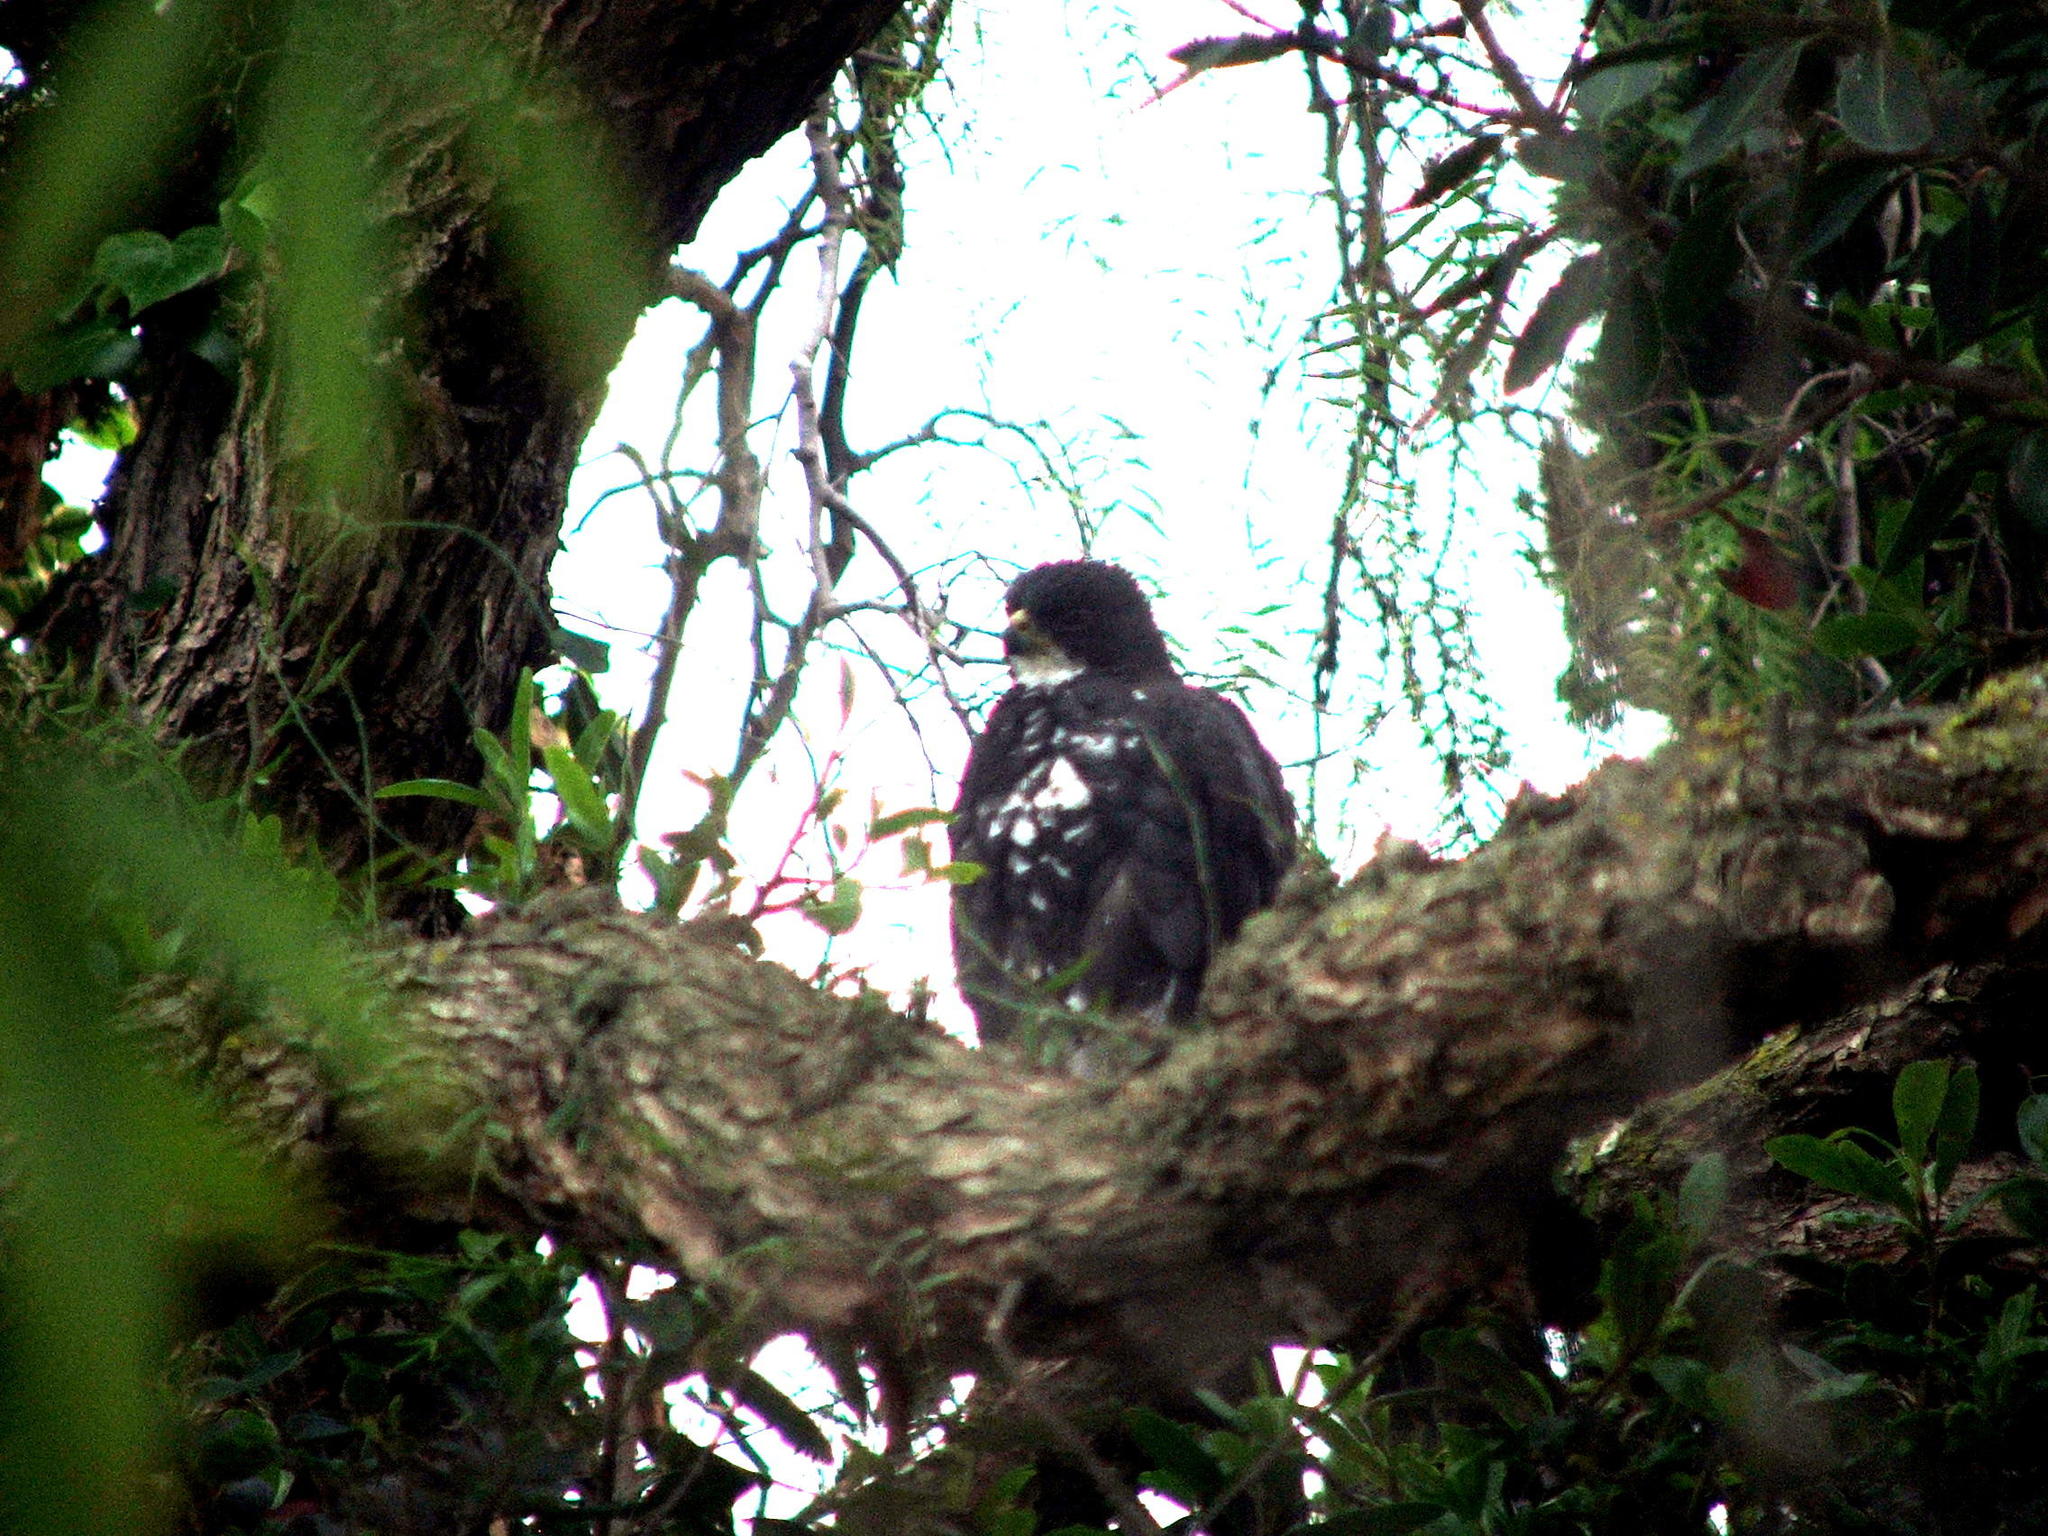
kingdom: Animalia
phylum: Chordata
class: Aves
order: Accipitriformes
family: Accipitridae
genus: Accipiter
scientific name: Accipiter melanoleucus
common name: Black sparrowhawk
